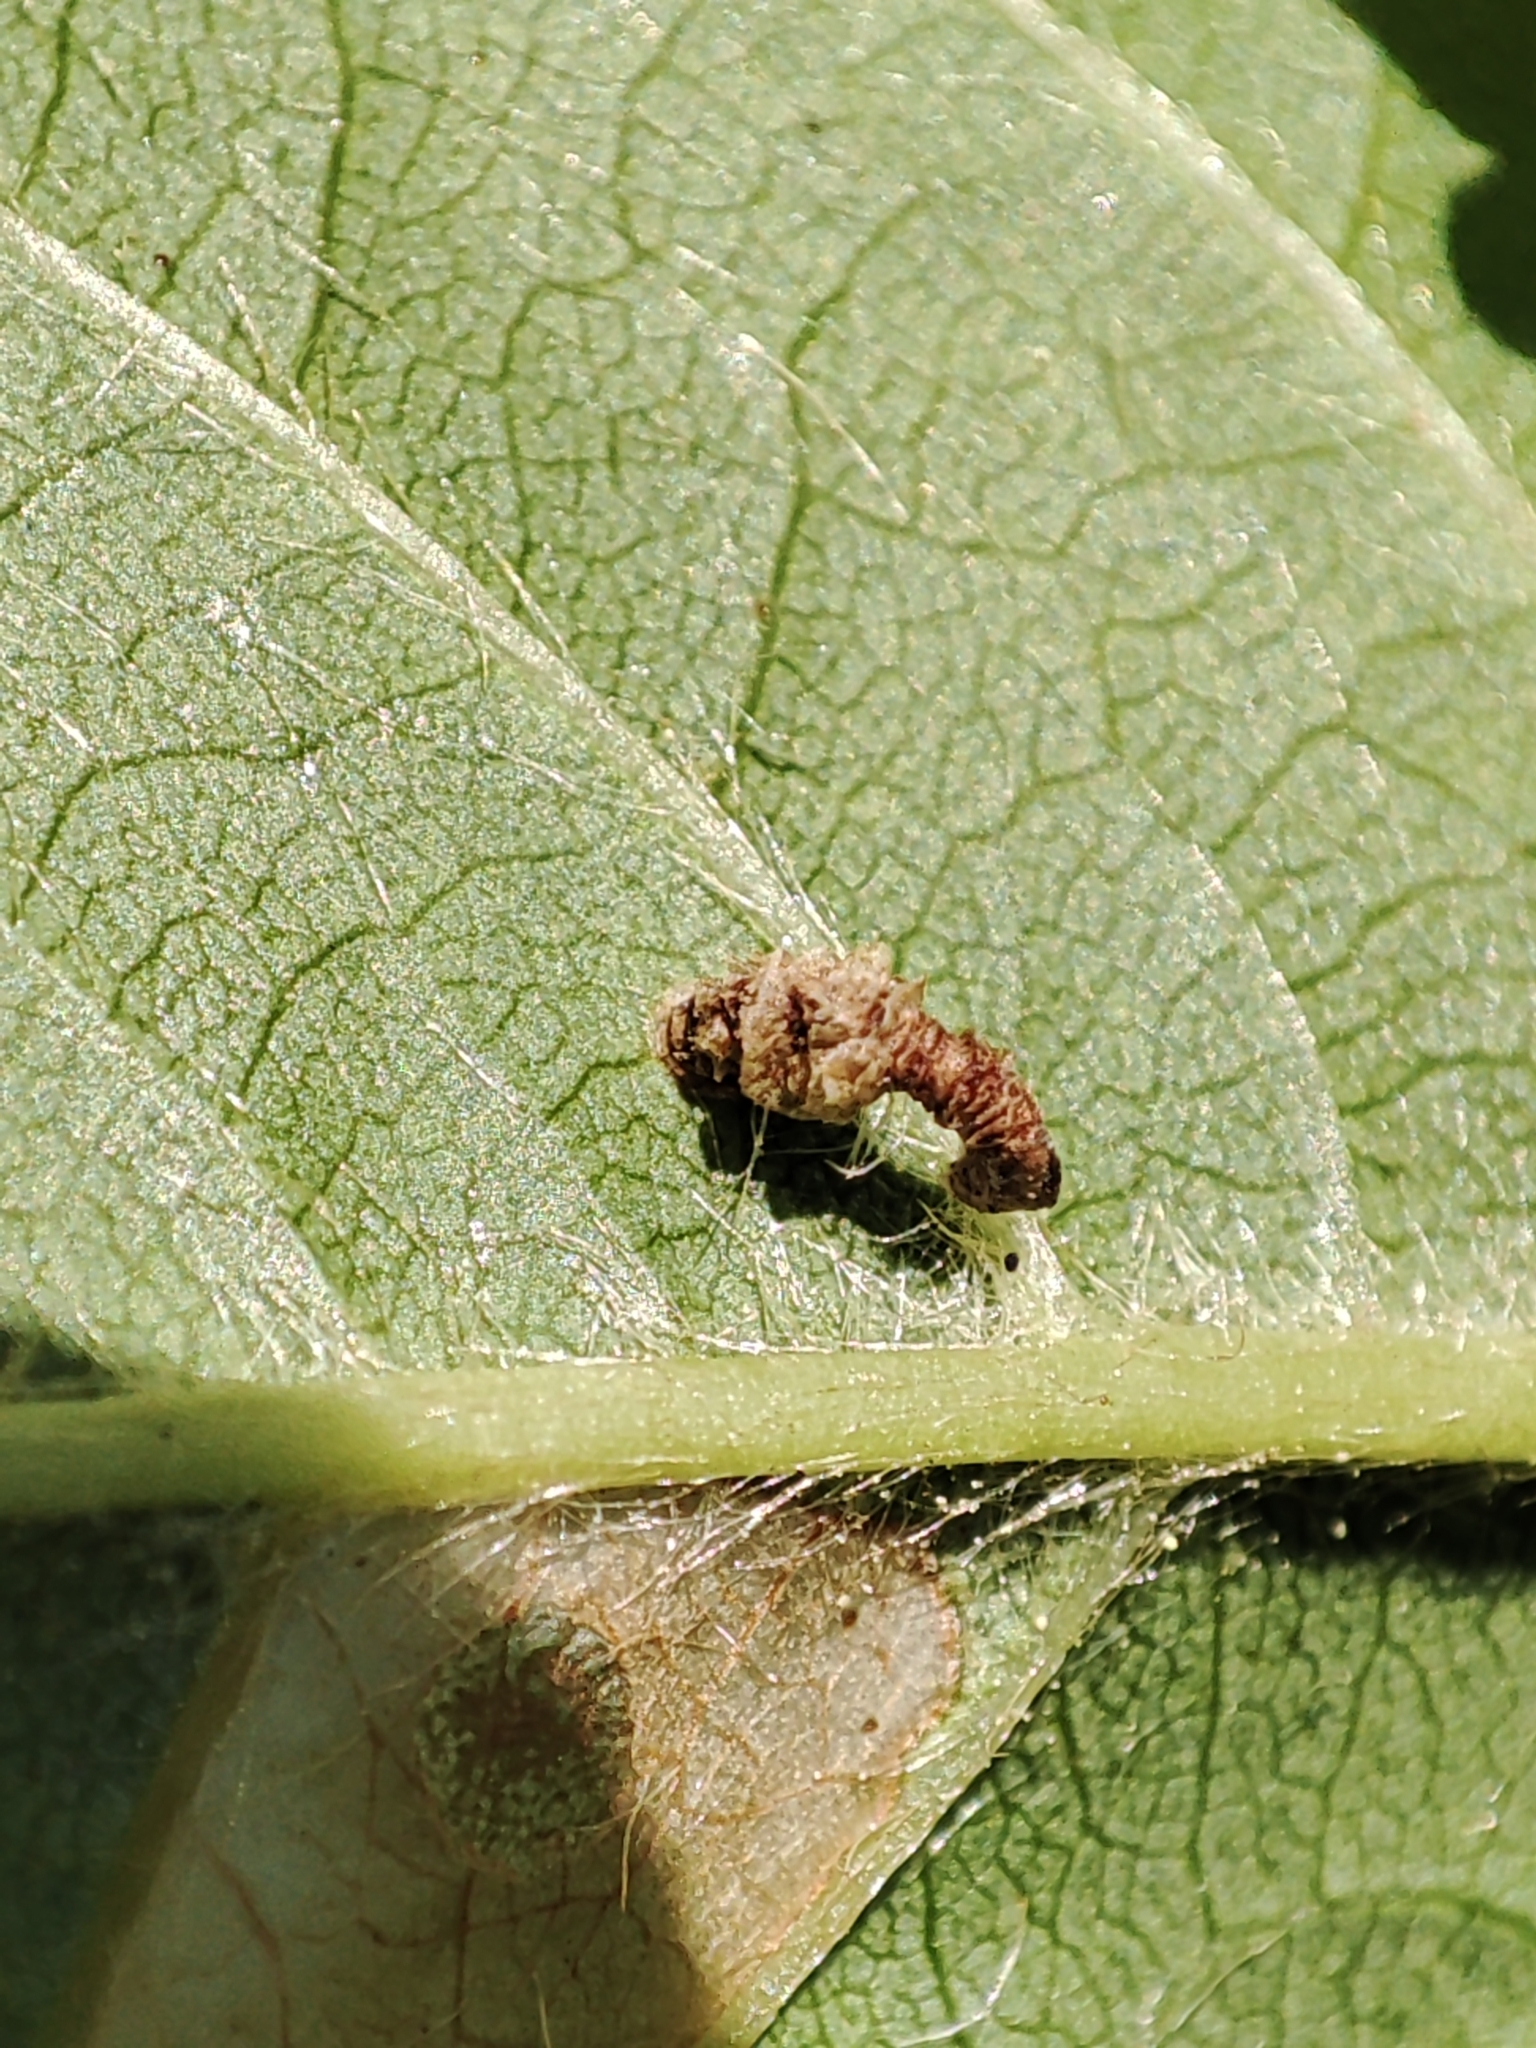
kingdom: Plantae
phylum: Tracheophyta
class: Magnoliopsida
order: Rosales
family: Rosaceae
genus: Prunus
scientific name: Prunus avium
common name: Sweet cherry
